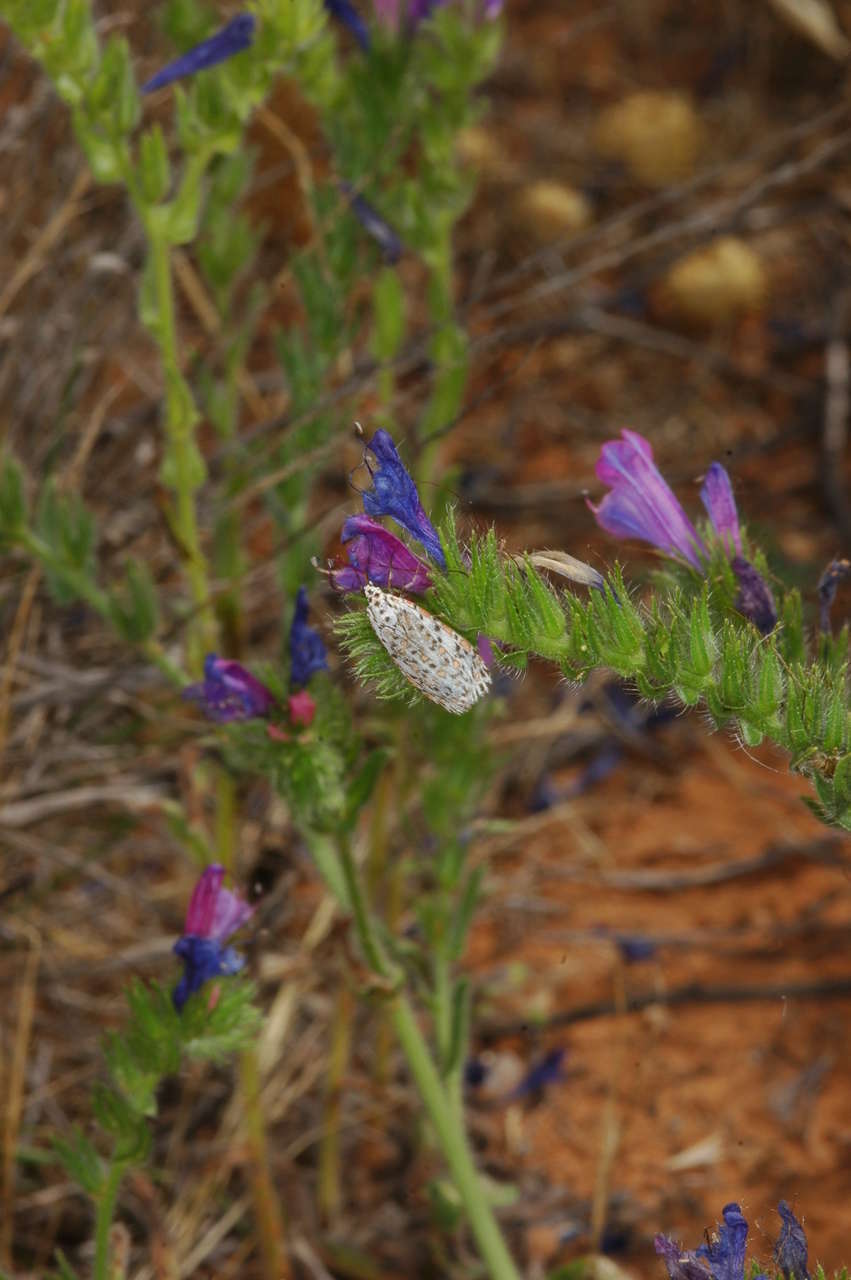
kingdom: Animalia
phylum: Arthropoda
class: Insecta
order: Lepidoptera
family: Erebidae
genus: Utetheisa
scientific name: Utetheisa
